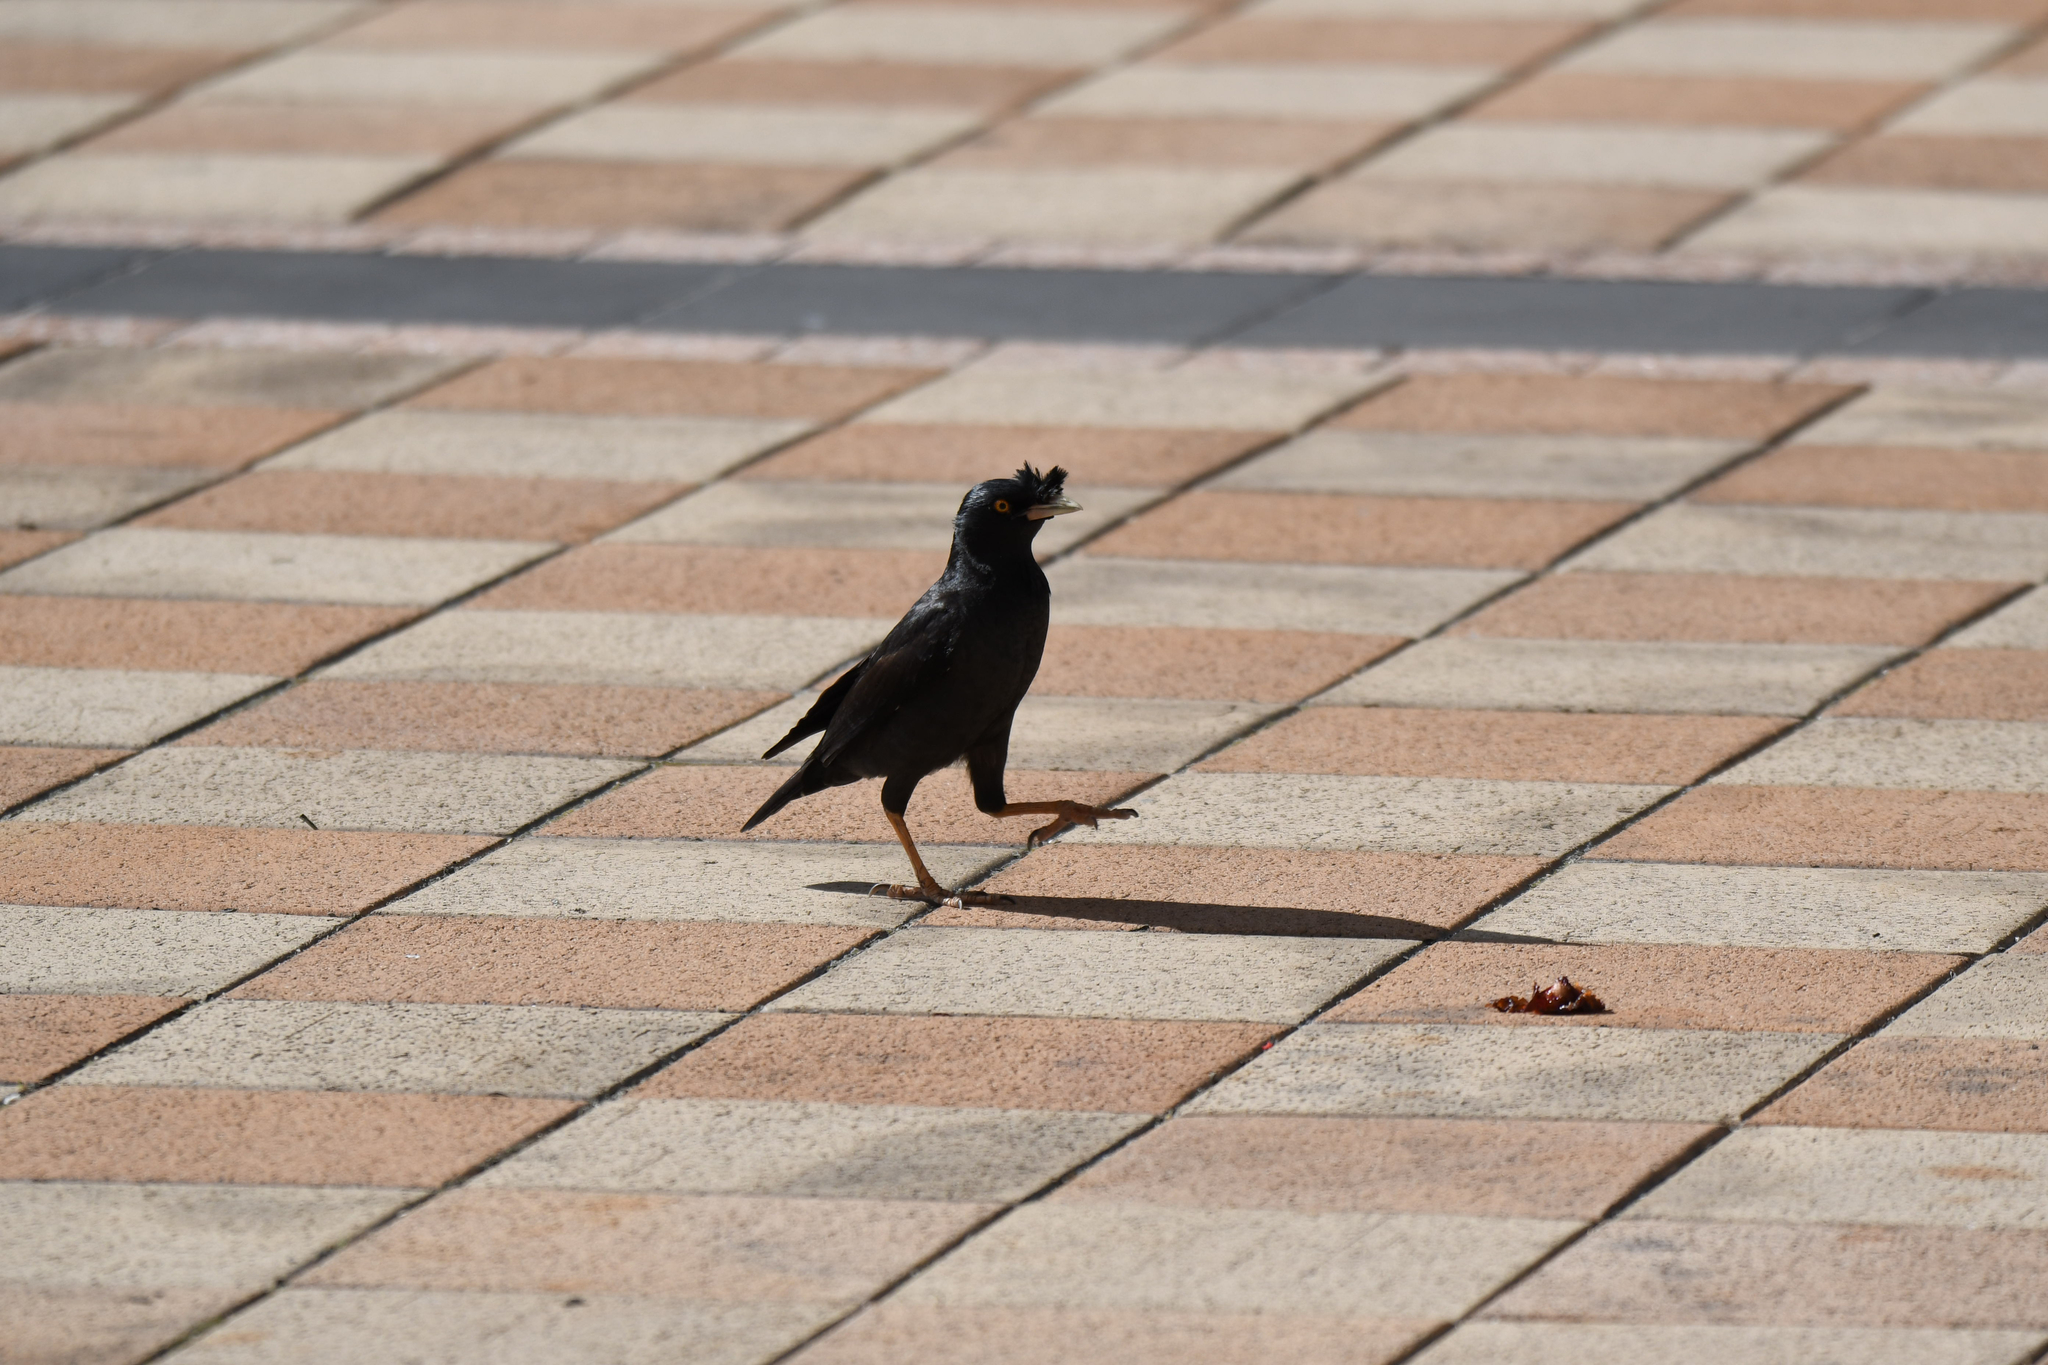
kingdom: Animalia
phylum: Chordata
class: Aves
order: Passeriformes
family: Sturnidae
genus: Acridotheres
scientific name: Acridotheres cristatellus
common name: Crested myna
